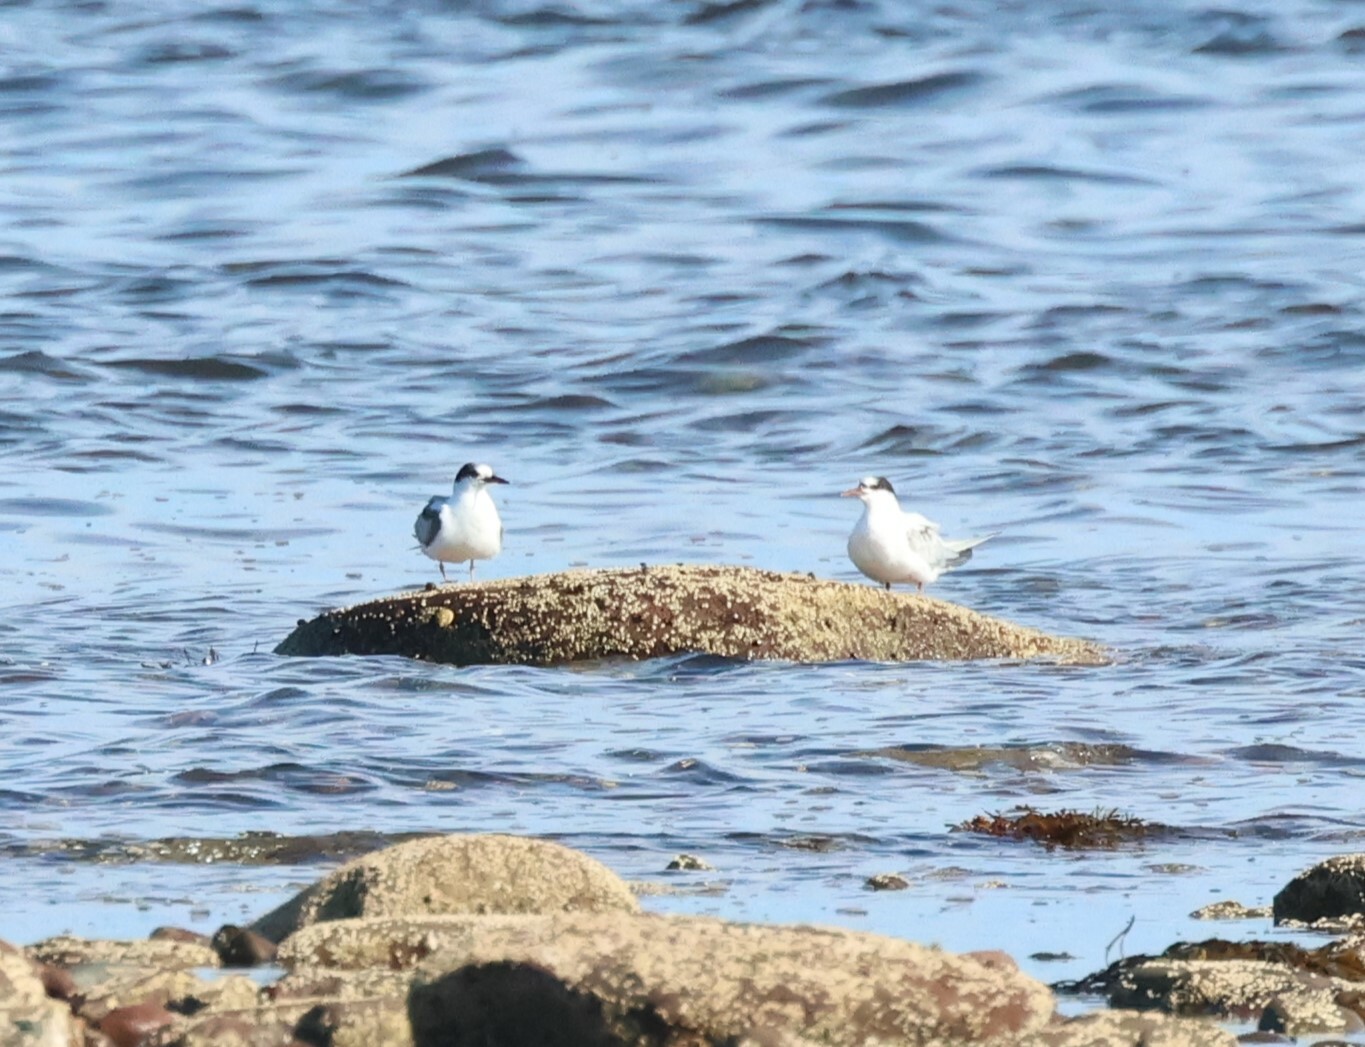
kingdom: Animalia
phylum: Chordata
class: Aves
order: Charadriiformes
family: Laridae
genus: Sterna
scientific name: Sterna hirundo
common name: Common tern
